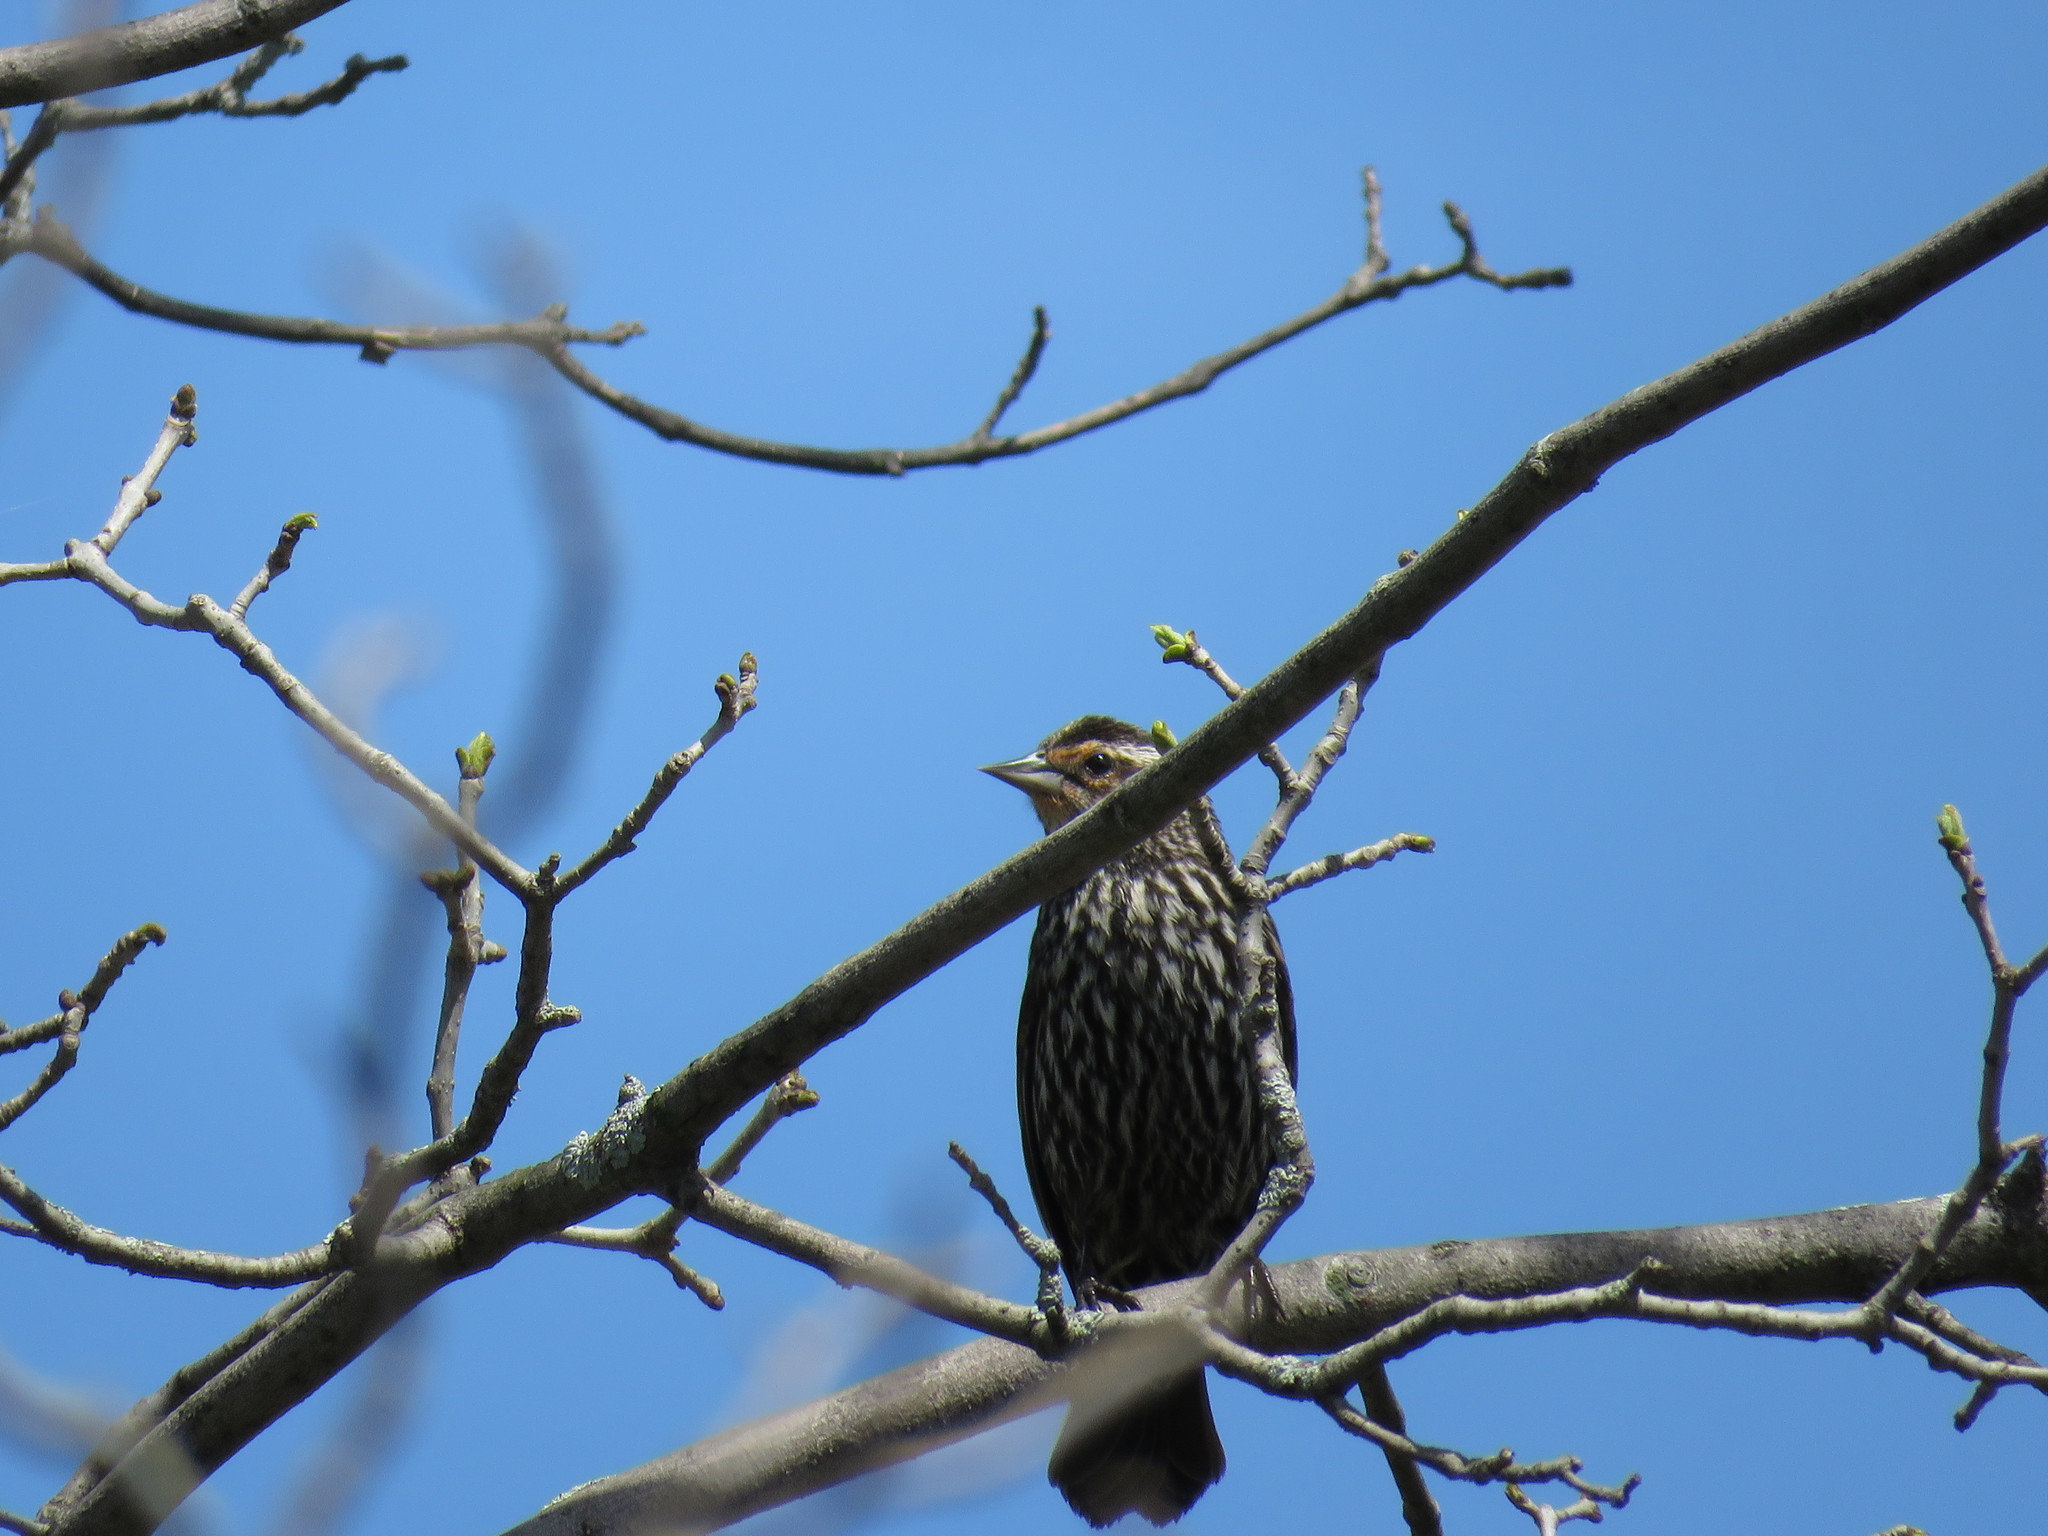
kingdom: Animalia
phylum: Chordata
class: Aves
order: Passeriformes
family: Icteridae
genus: Agelaius
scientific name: Agelaius phoeniceus
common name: Red-winged blackbird
